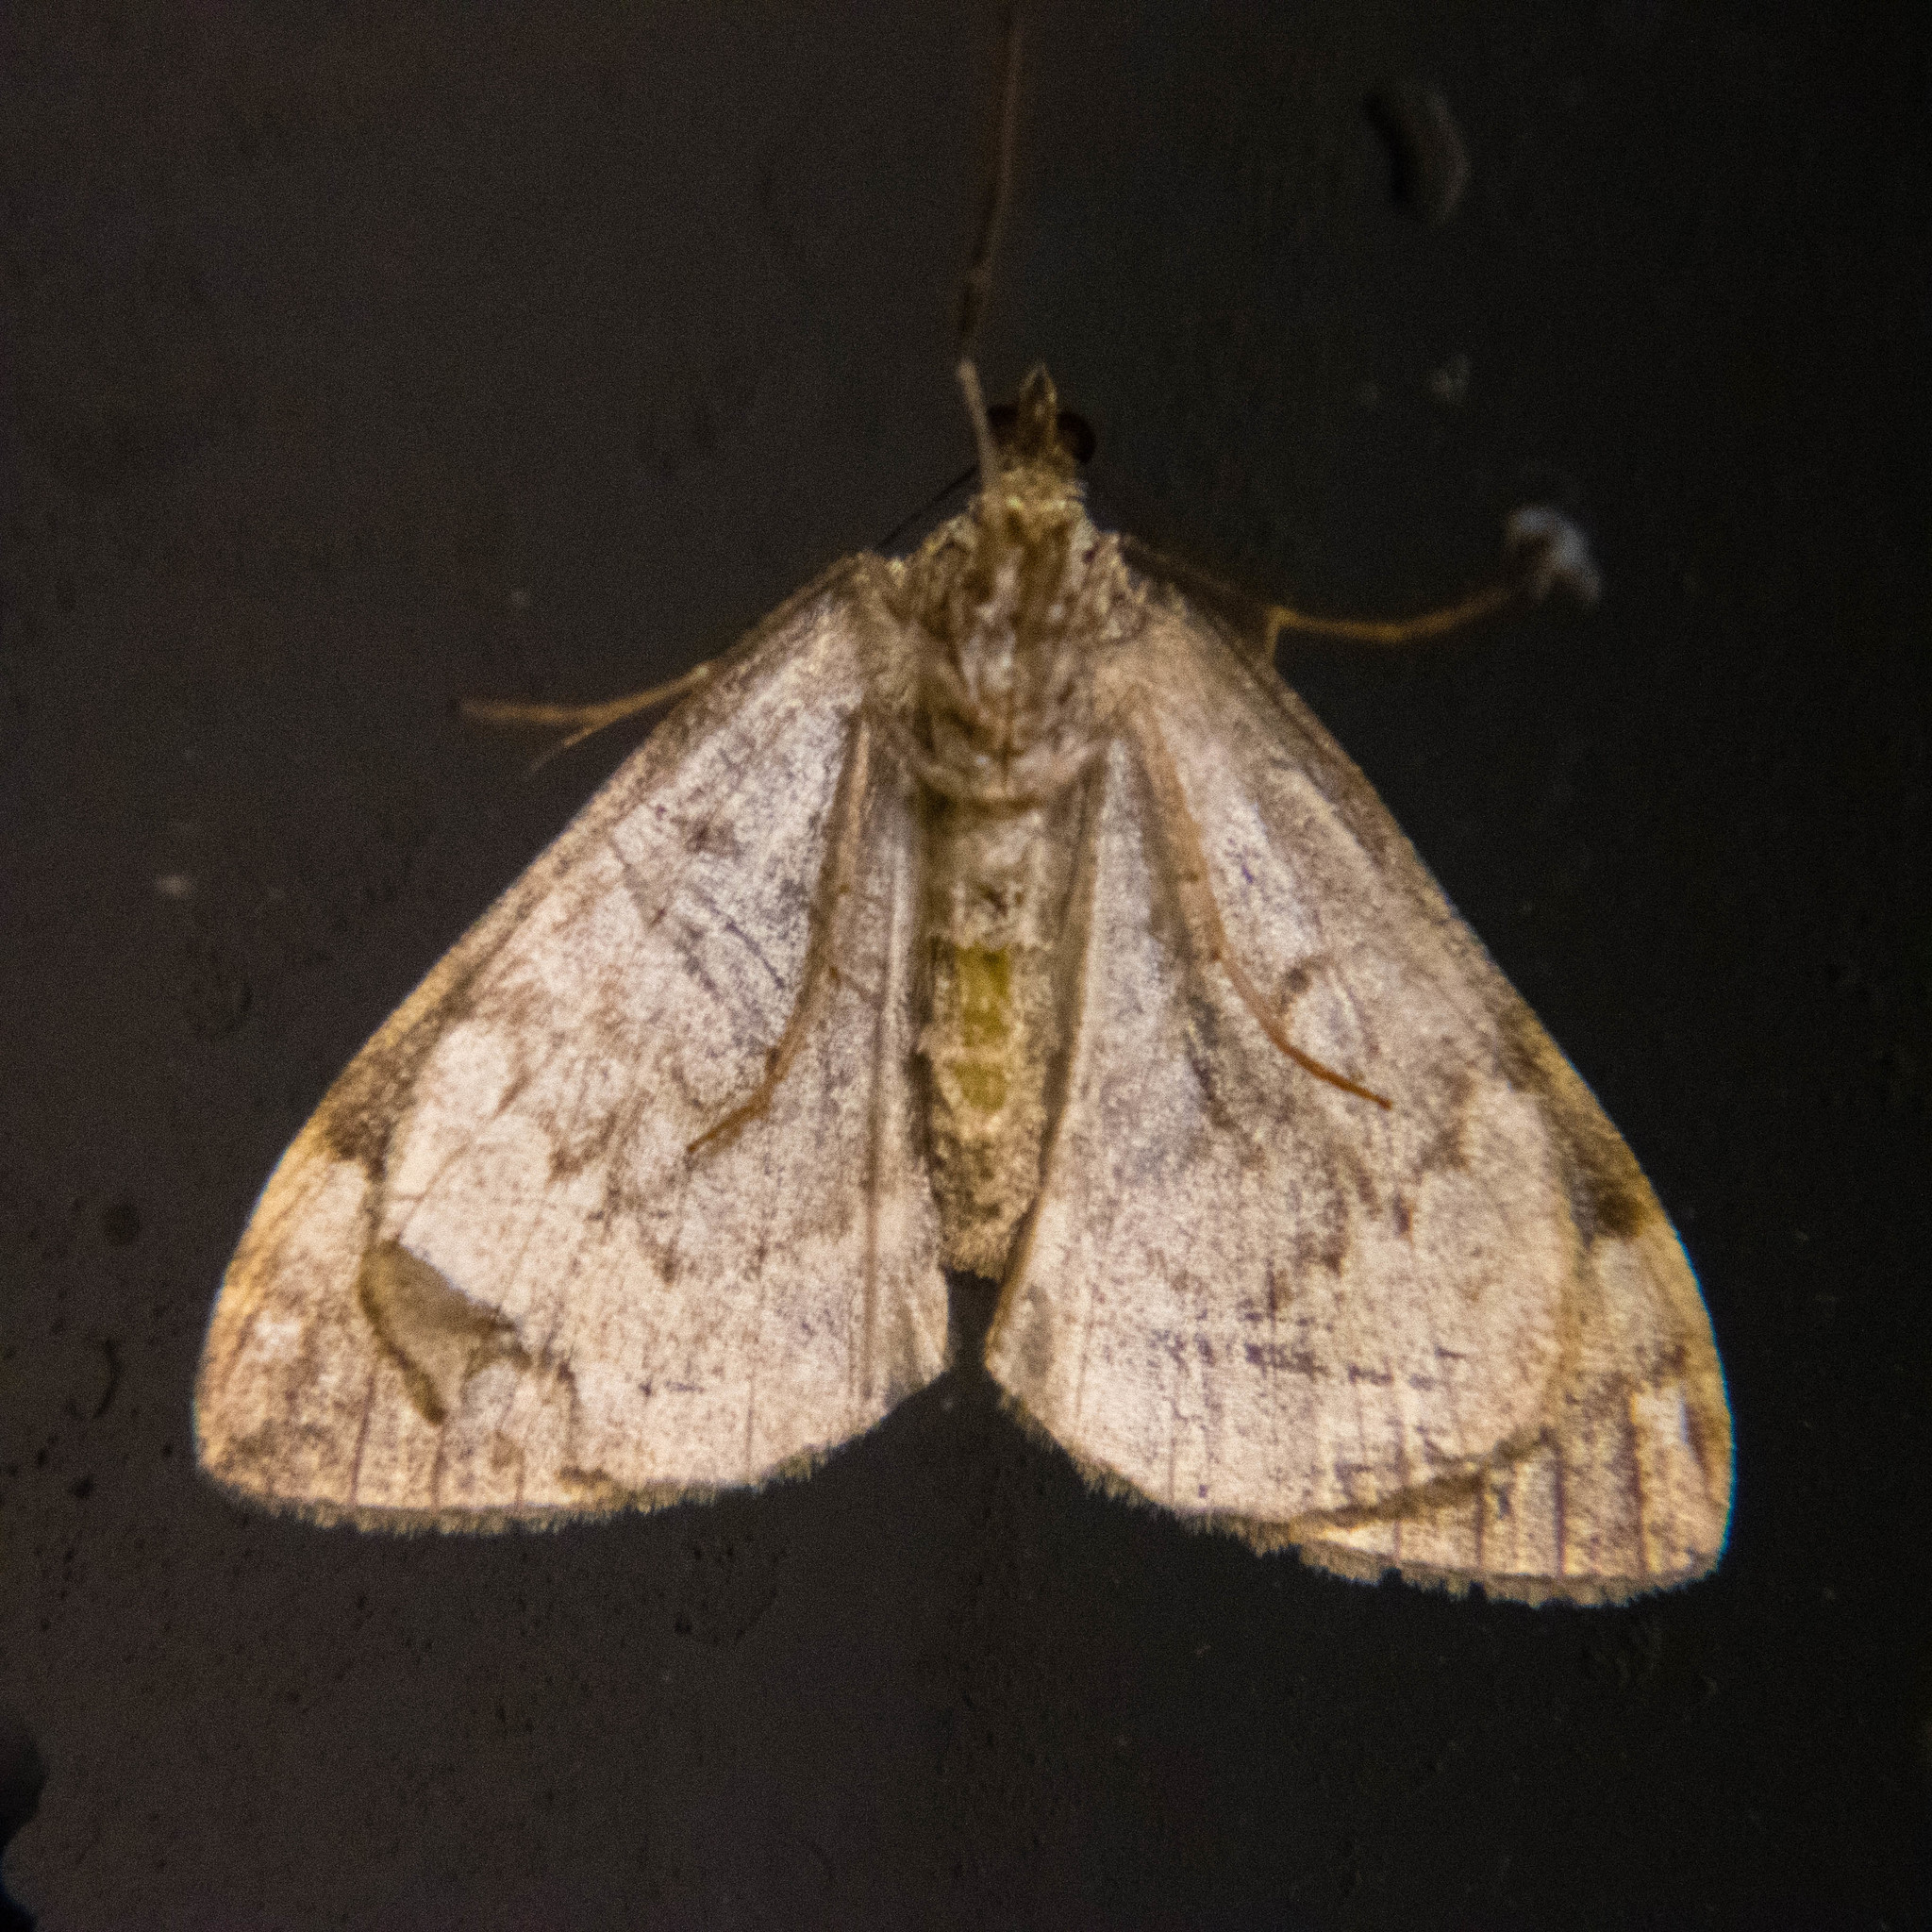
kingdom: Animalia
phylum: Arthropoda
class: Insecta
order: Lepidoptera
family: Geometridae
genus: Dysstroma
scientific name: Dysstroma truncata
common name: Common marbled carpet
